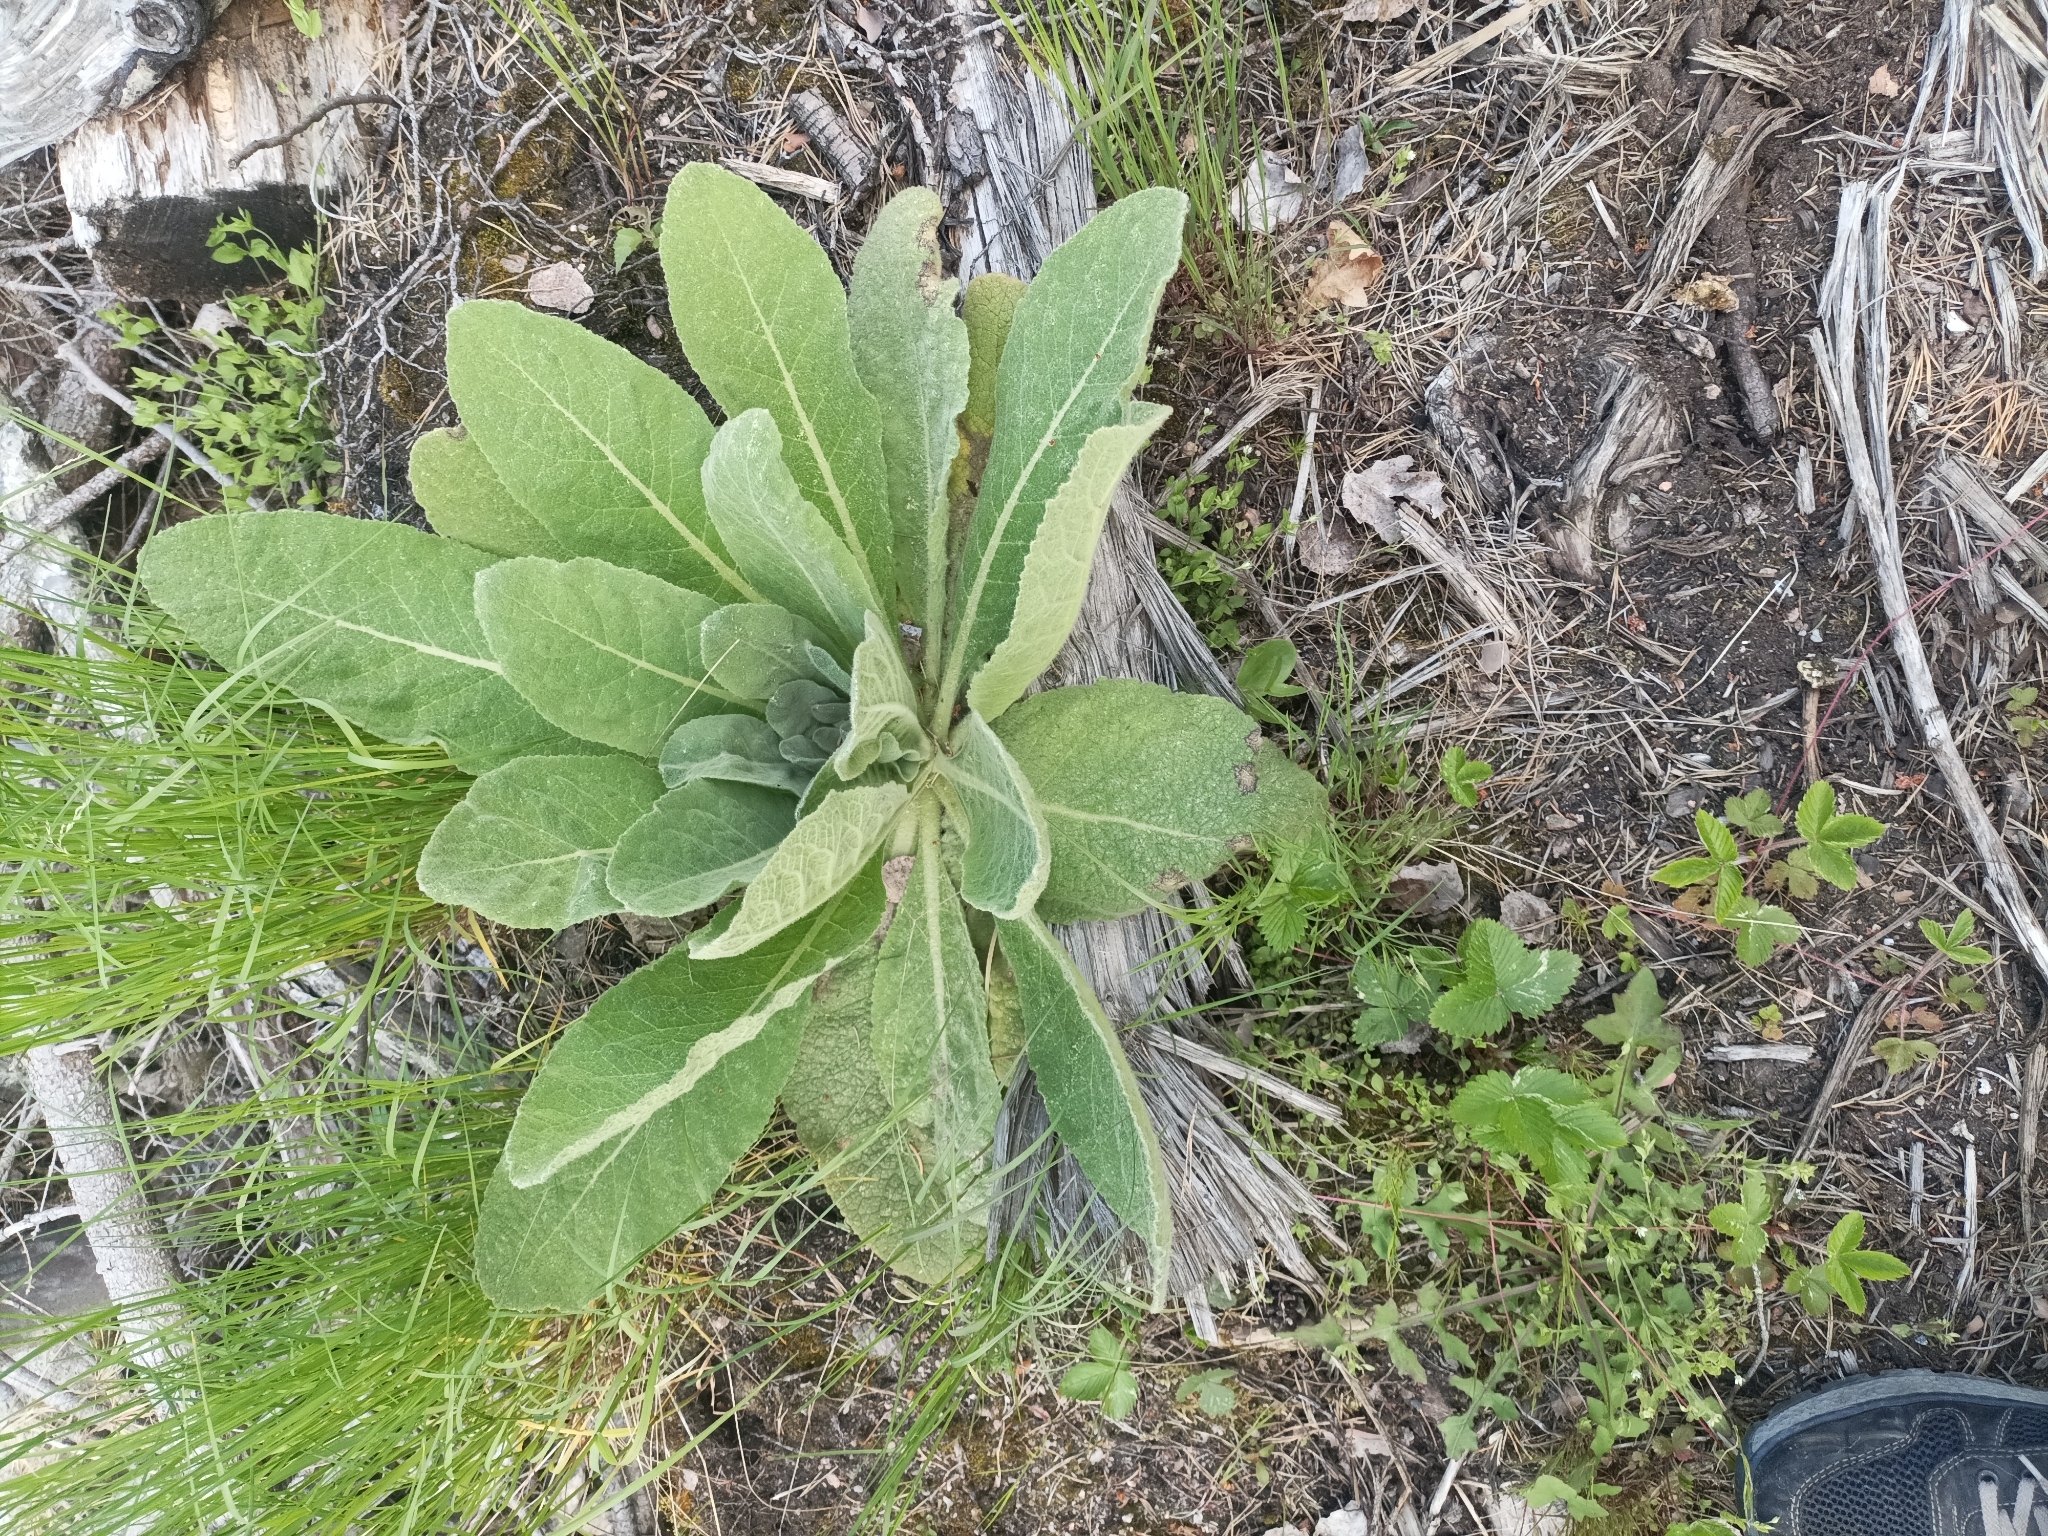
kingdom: Plantae
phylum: Tracheophyta
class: Magnoliopsida
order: Lamiales
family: Scrophulariaceae
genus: Verbascum
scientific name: Verbascum thapsus
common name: Common mullein
